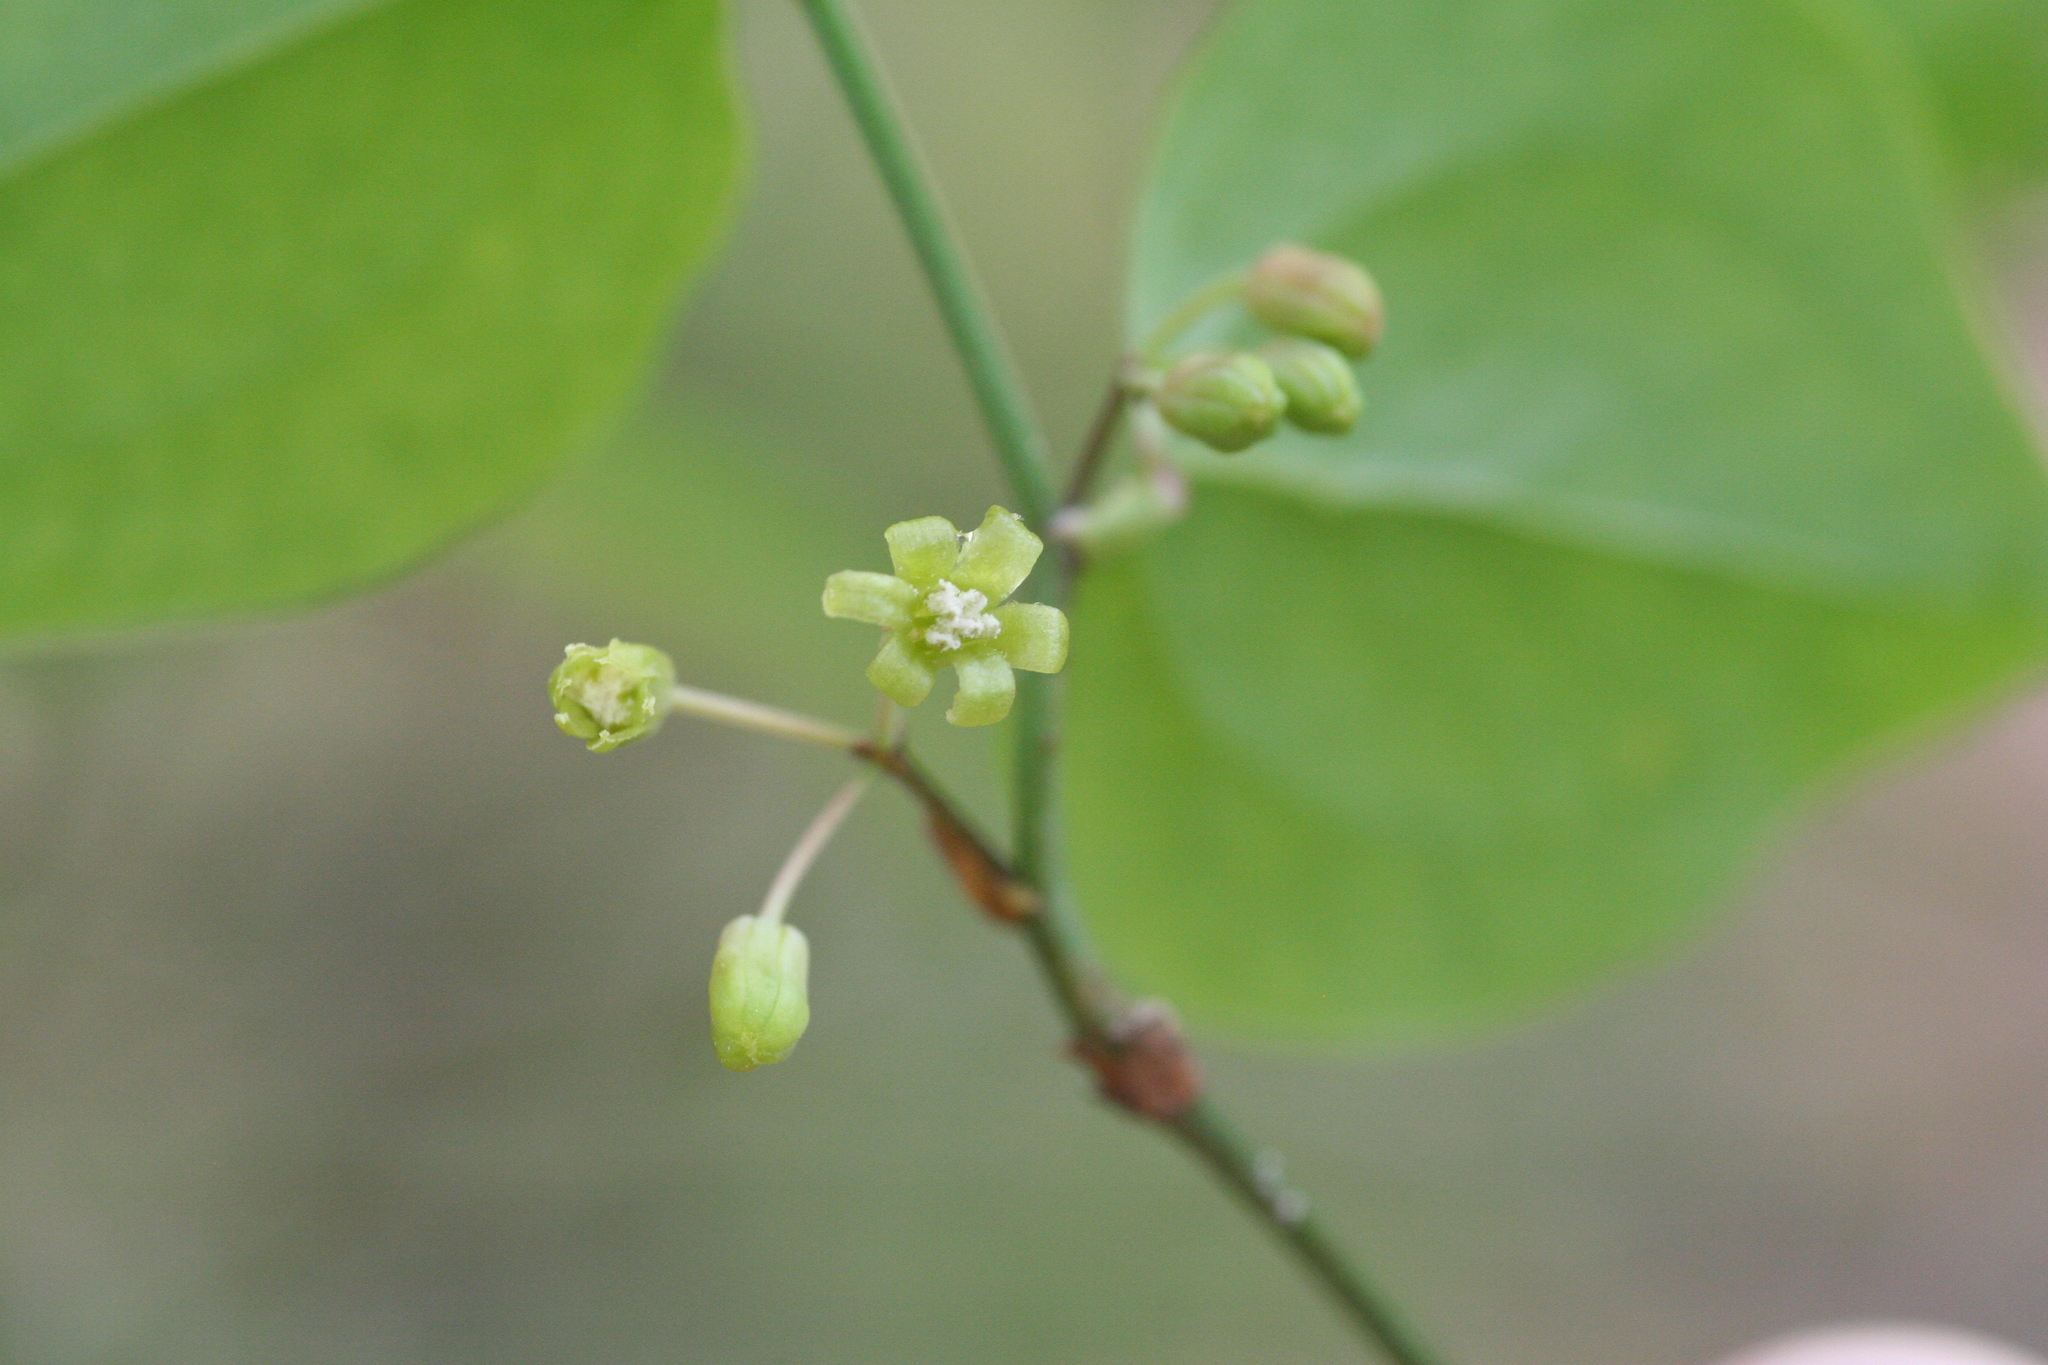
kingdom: Plantae
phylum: Tracheophyta
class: Liliopsida
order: Liliales
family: Smilacaceae
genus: Smilax
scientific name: Smilax rotundifolia
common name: Bullbriar
